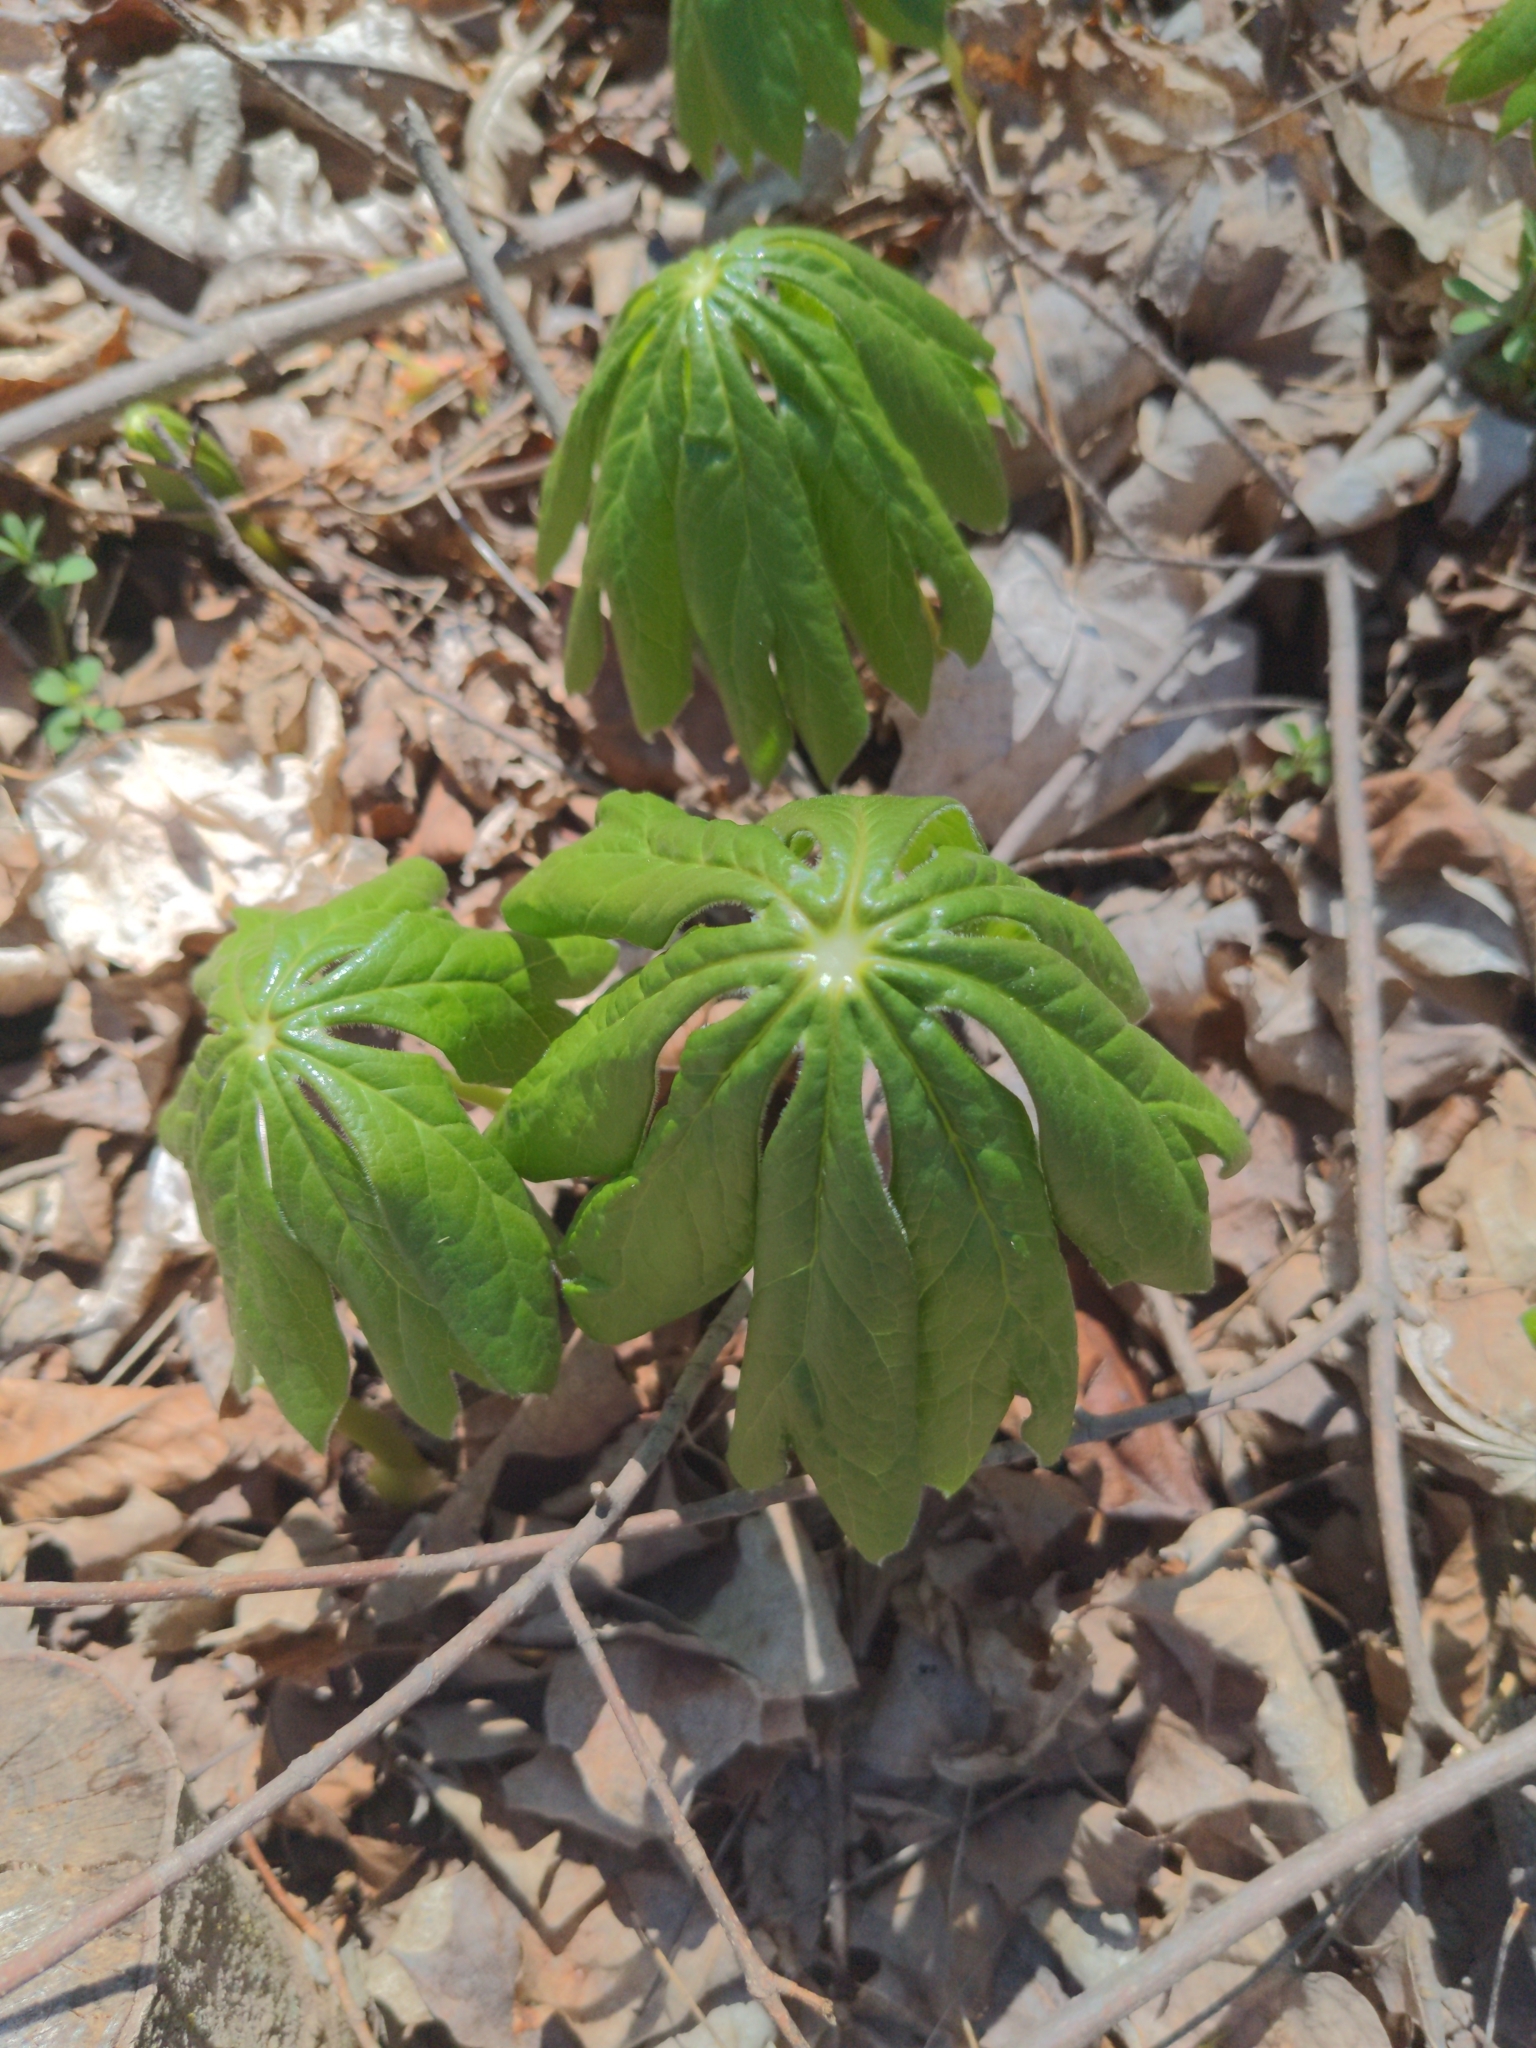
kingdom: Plantae
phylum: Tracheophyta
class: Magnoliopsida
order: Ranunculales
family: Berberidaceae
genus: Podophyllum
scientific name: Podophyllum peltatum
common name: Wild mandrake
